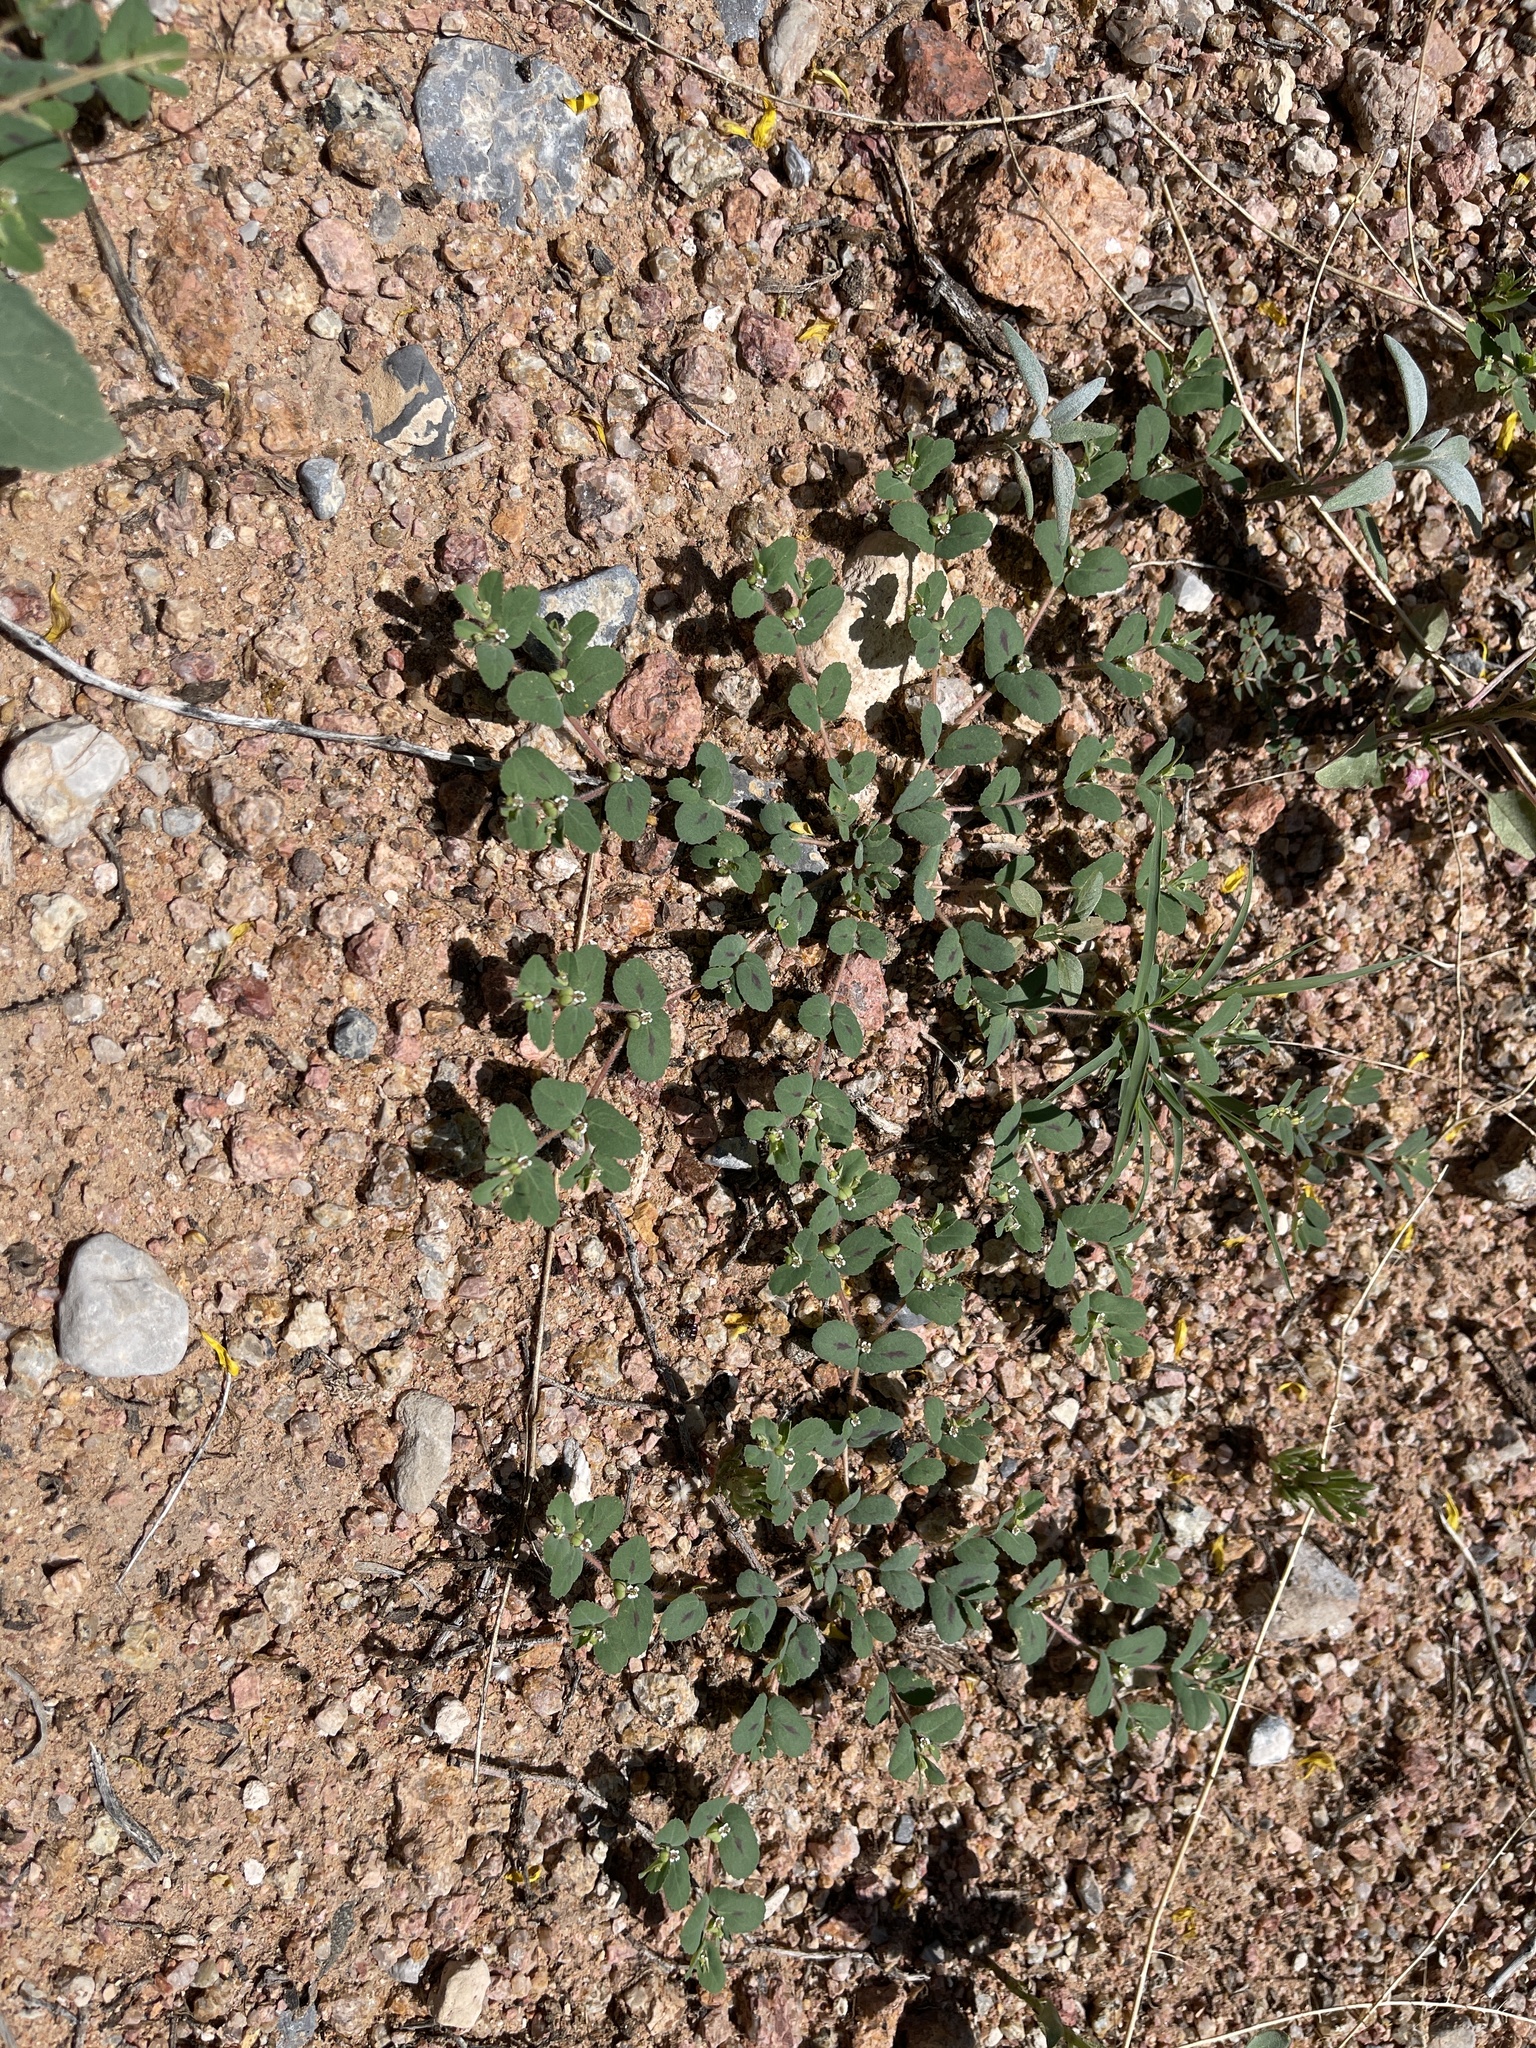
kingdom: Plantae
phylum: Tracheophyta
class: Magnoliopsida
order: Malpighiales
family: Euphorbiaceae
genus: Euphorbia
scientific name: Euphorbia serrula
